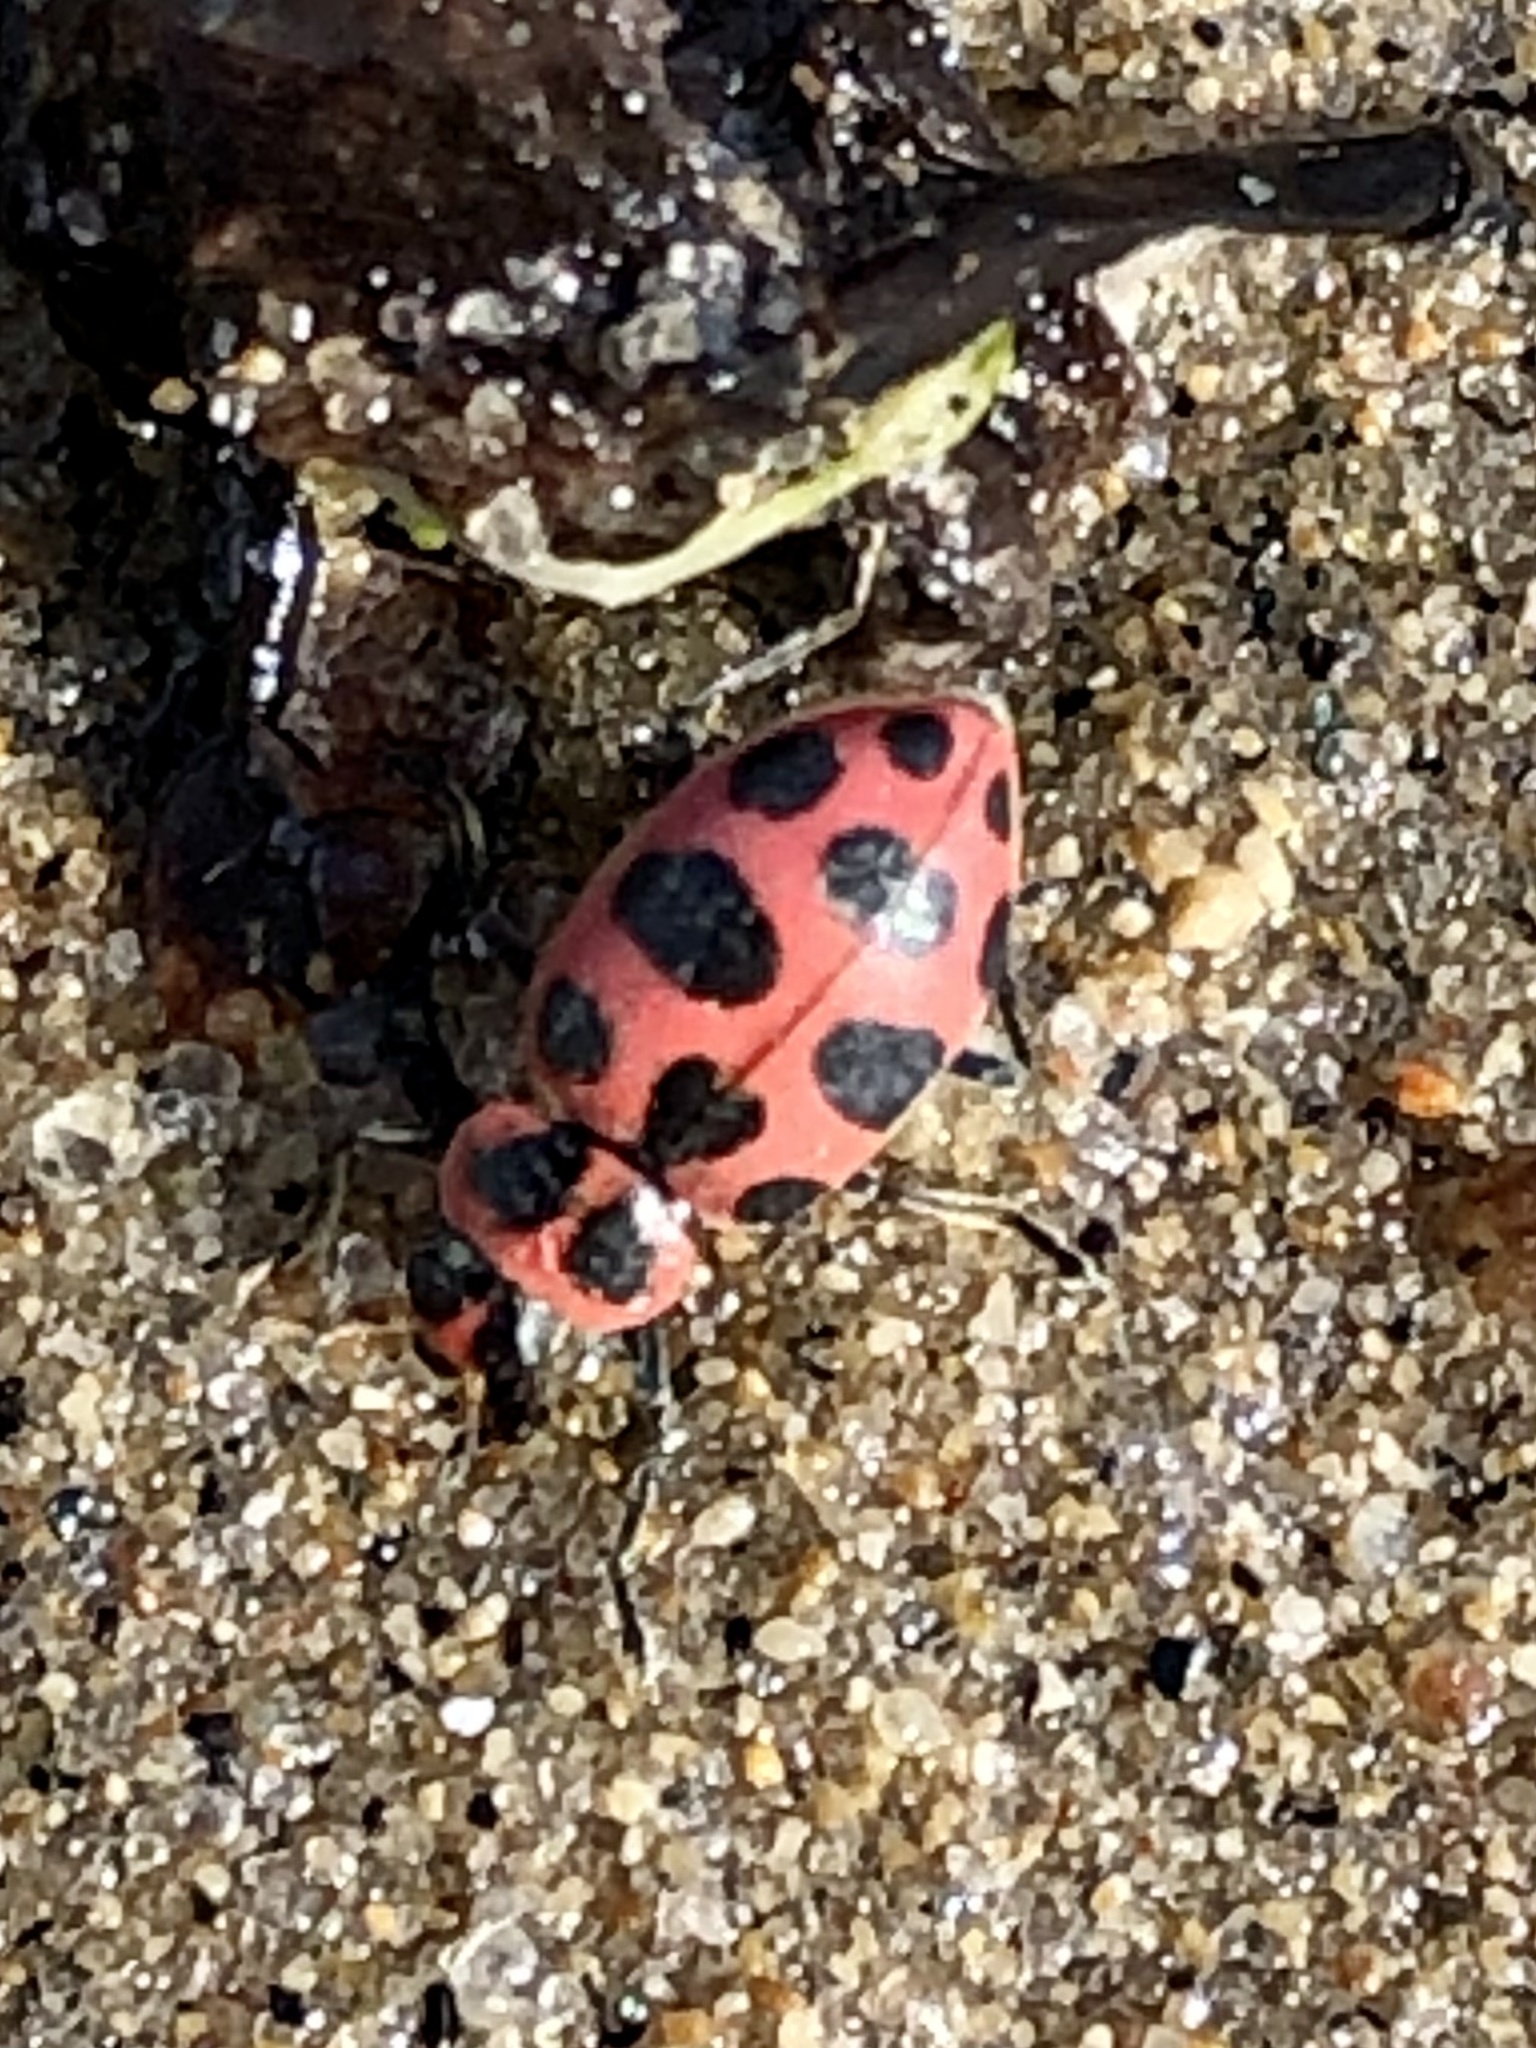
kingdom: Animalia
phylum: Arthropoda
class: Insecta
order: Coleoptera
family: Coccinellidae
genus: Coleomegilla
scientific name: Coleomegilla maculata
